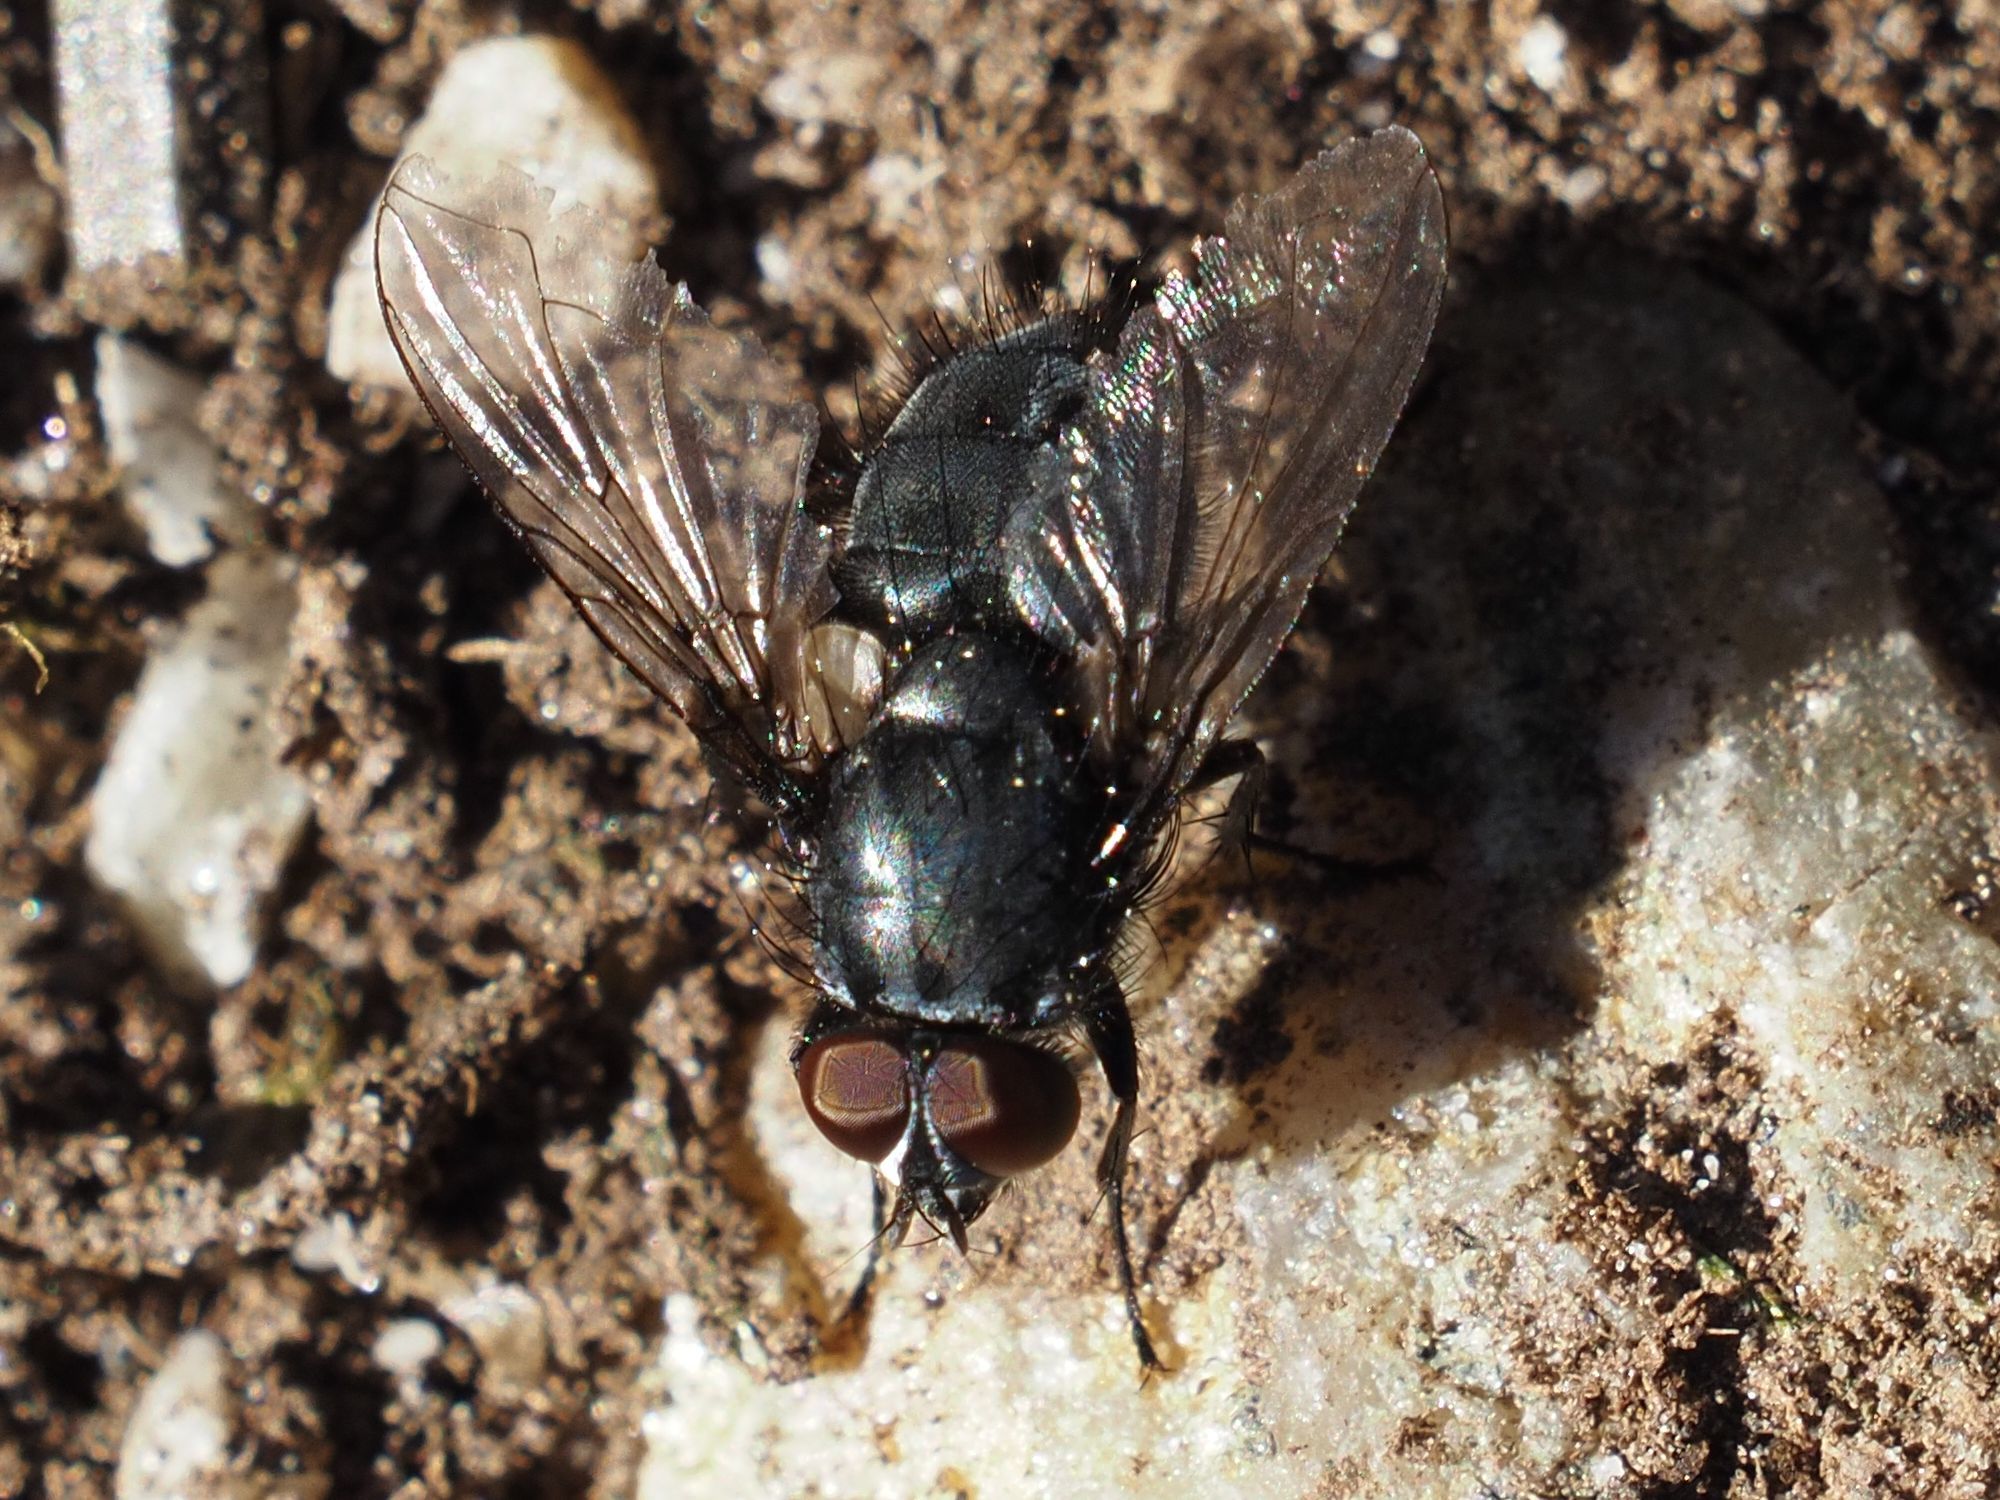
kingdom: Animalia
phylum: Arthropoda
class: Insecta
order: Diptera
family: Calliphoridae
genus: Melinda
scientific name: Melinda gentilis
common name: Pale-palped melinda
